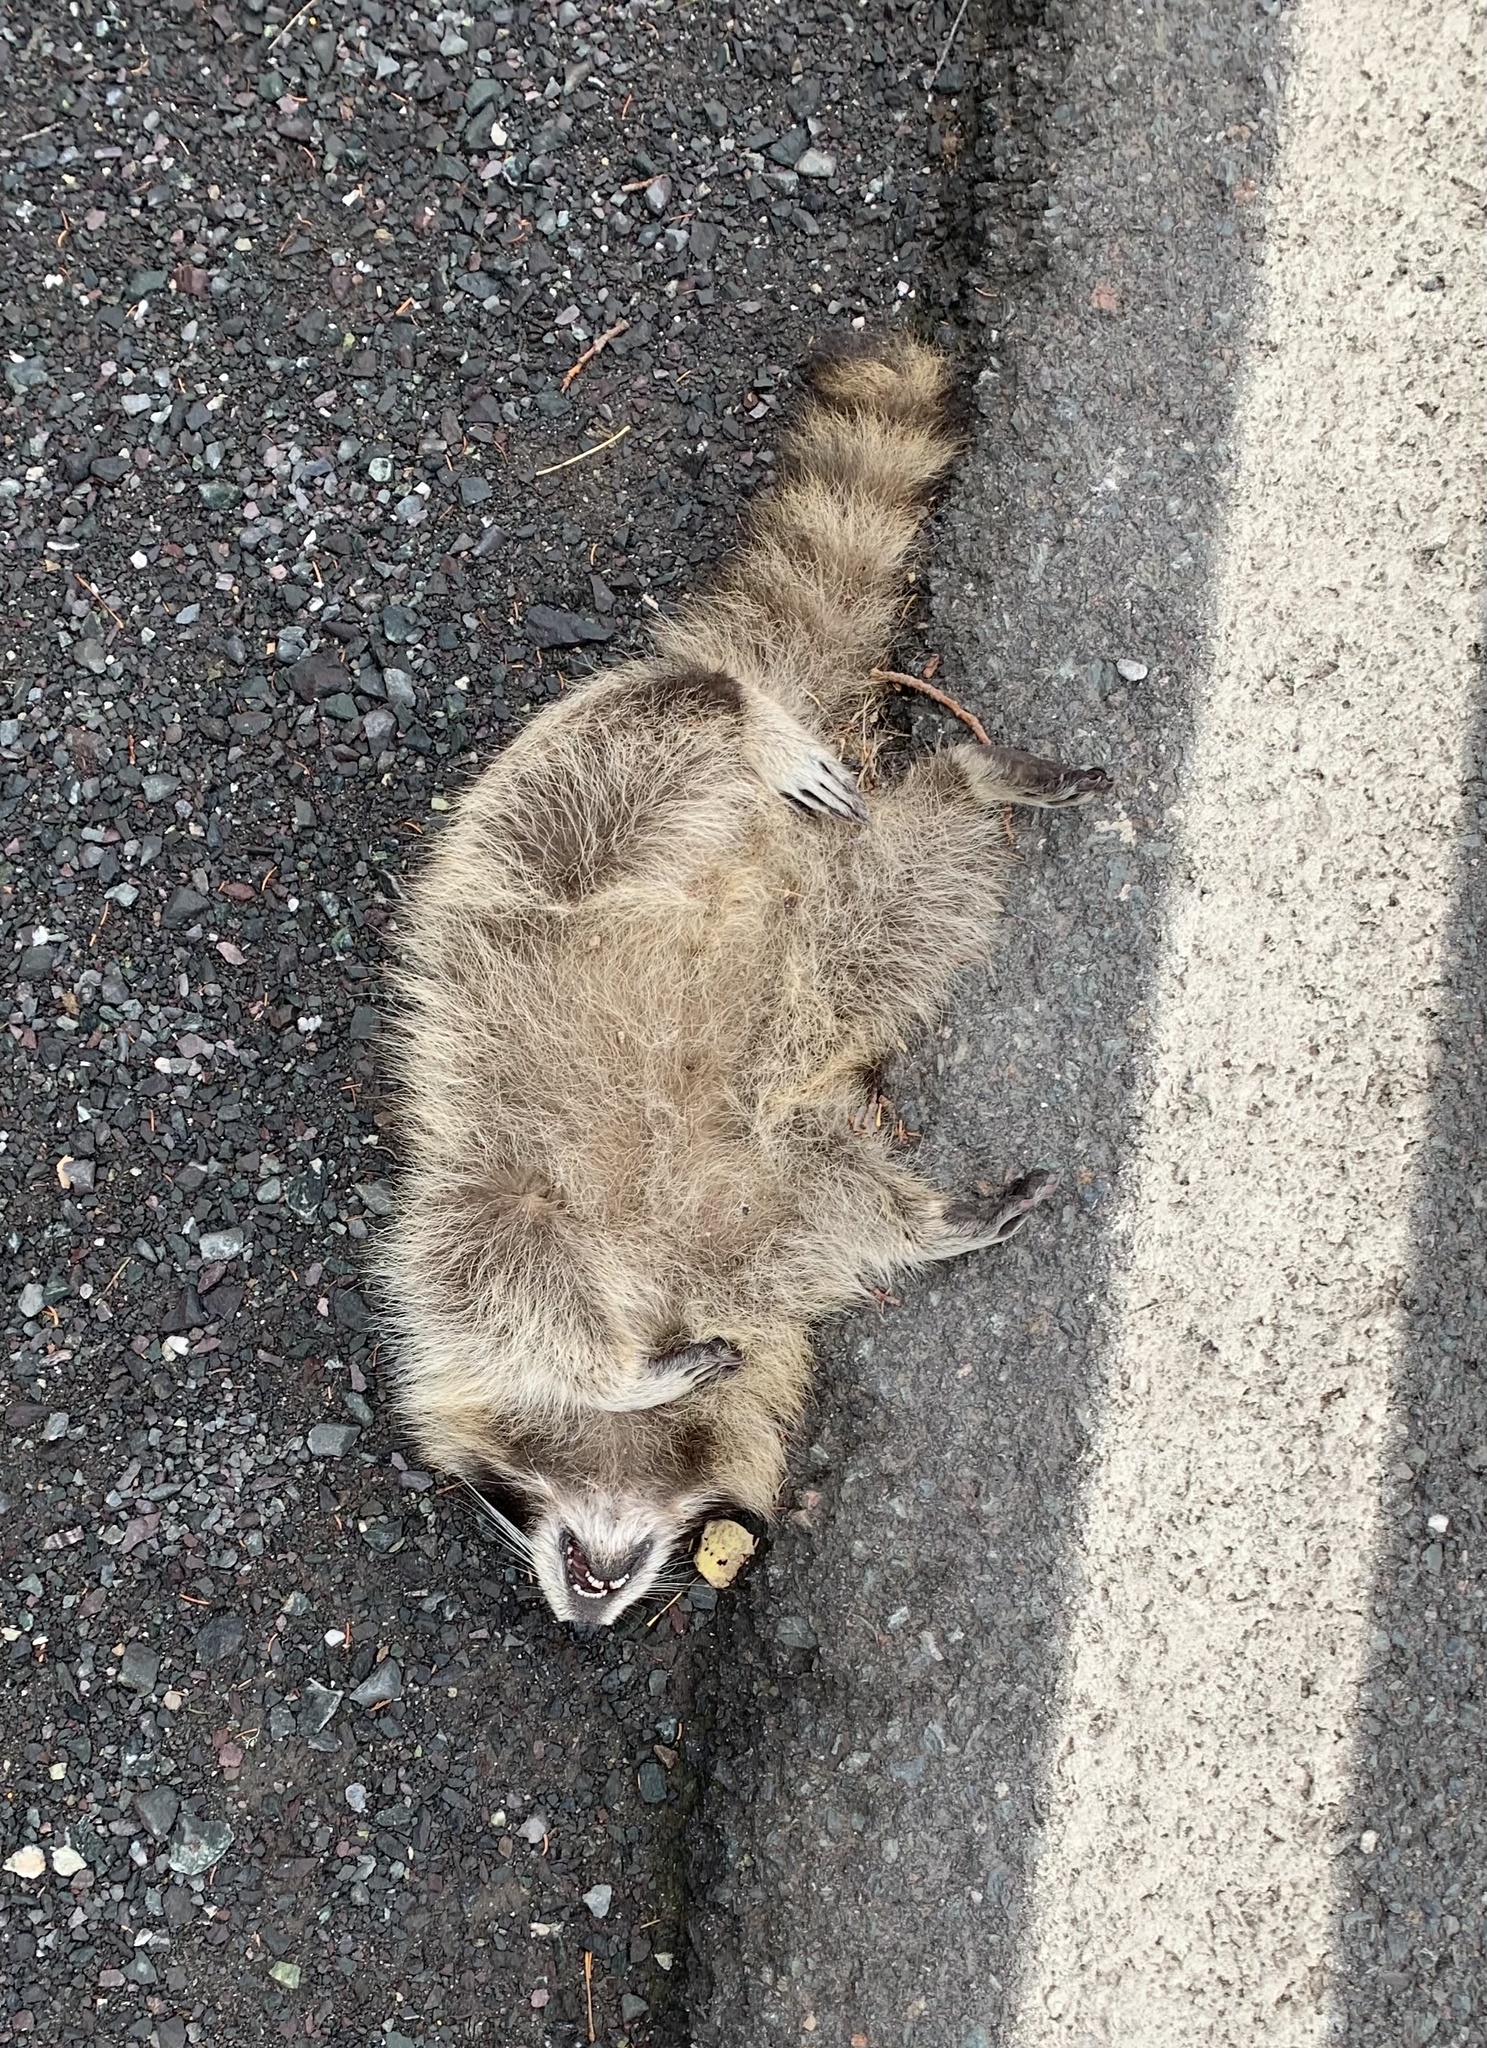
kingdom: Animalia
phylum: Chordata
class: Mammalia
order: Carnivora
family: Procyonidae
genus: Procyon
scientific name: Procyon lotor
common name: Raccoon
